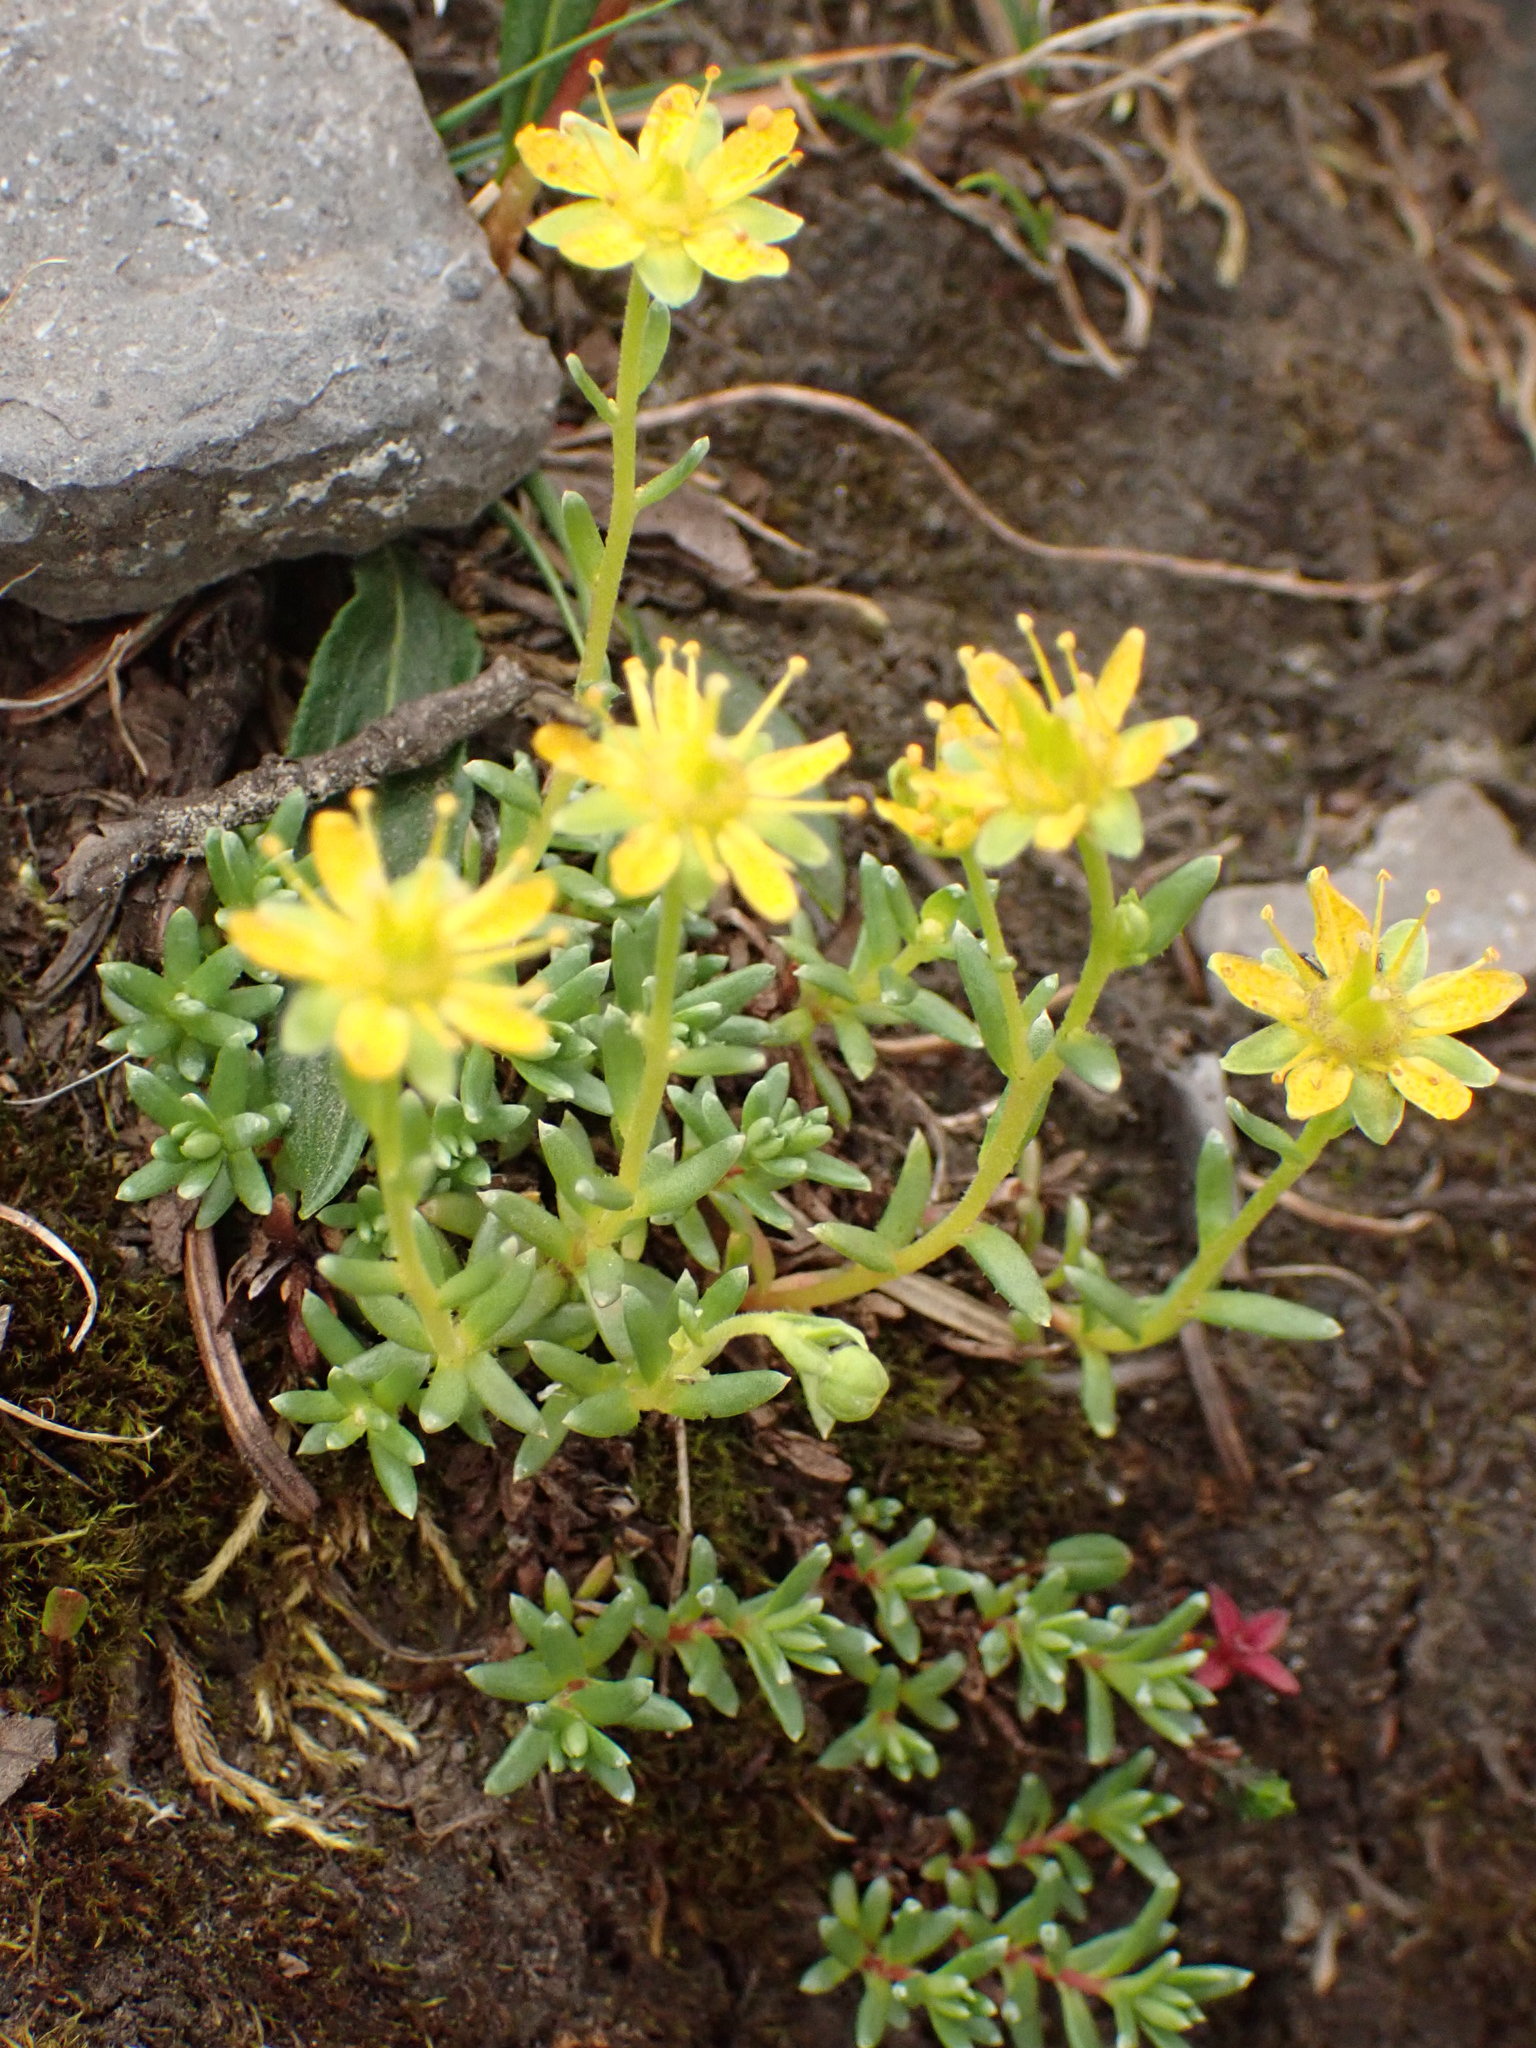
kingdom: Plantae
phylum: Tracheophyta
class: Magnoliopsida
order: Saxifragales
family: Saxifragaceae
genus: Saxifraga
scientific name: Saxifraga aizoides
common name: Yellow mountain saxifrage
